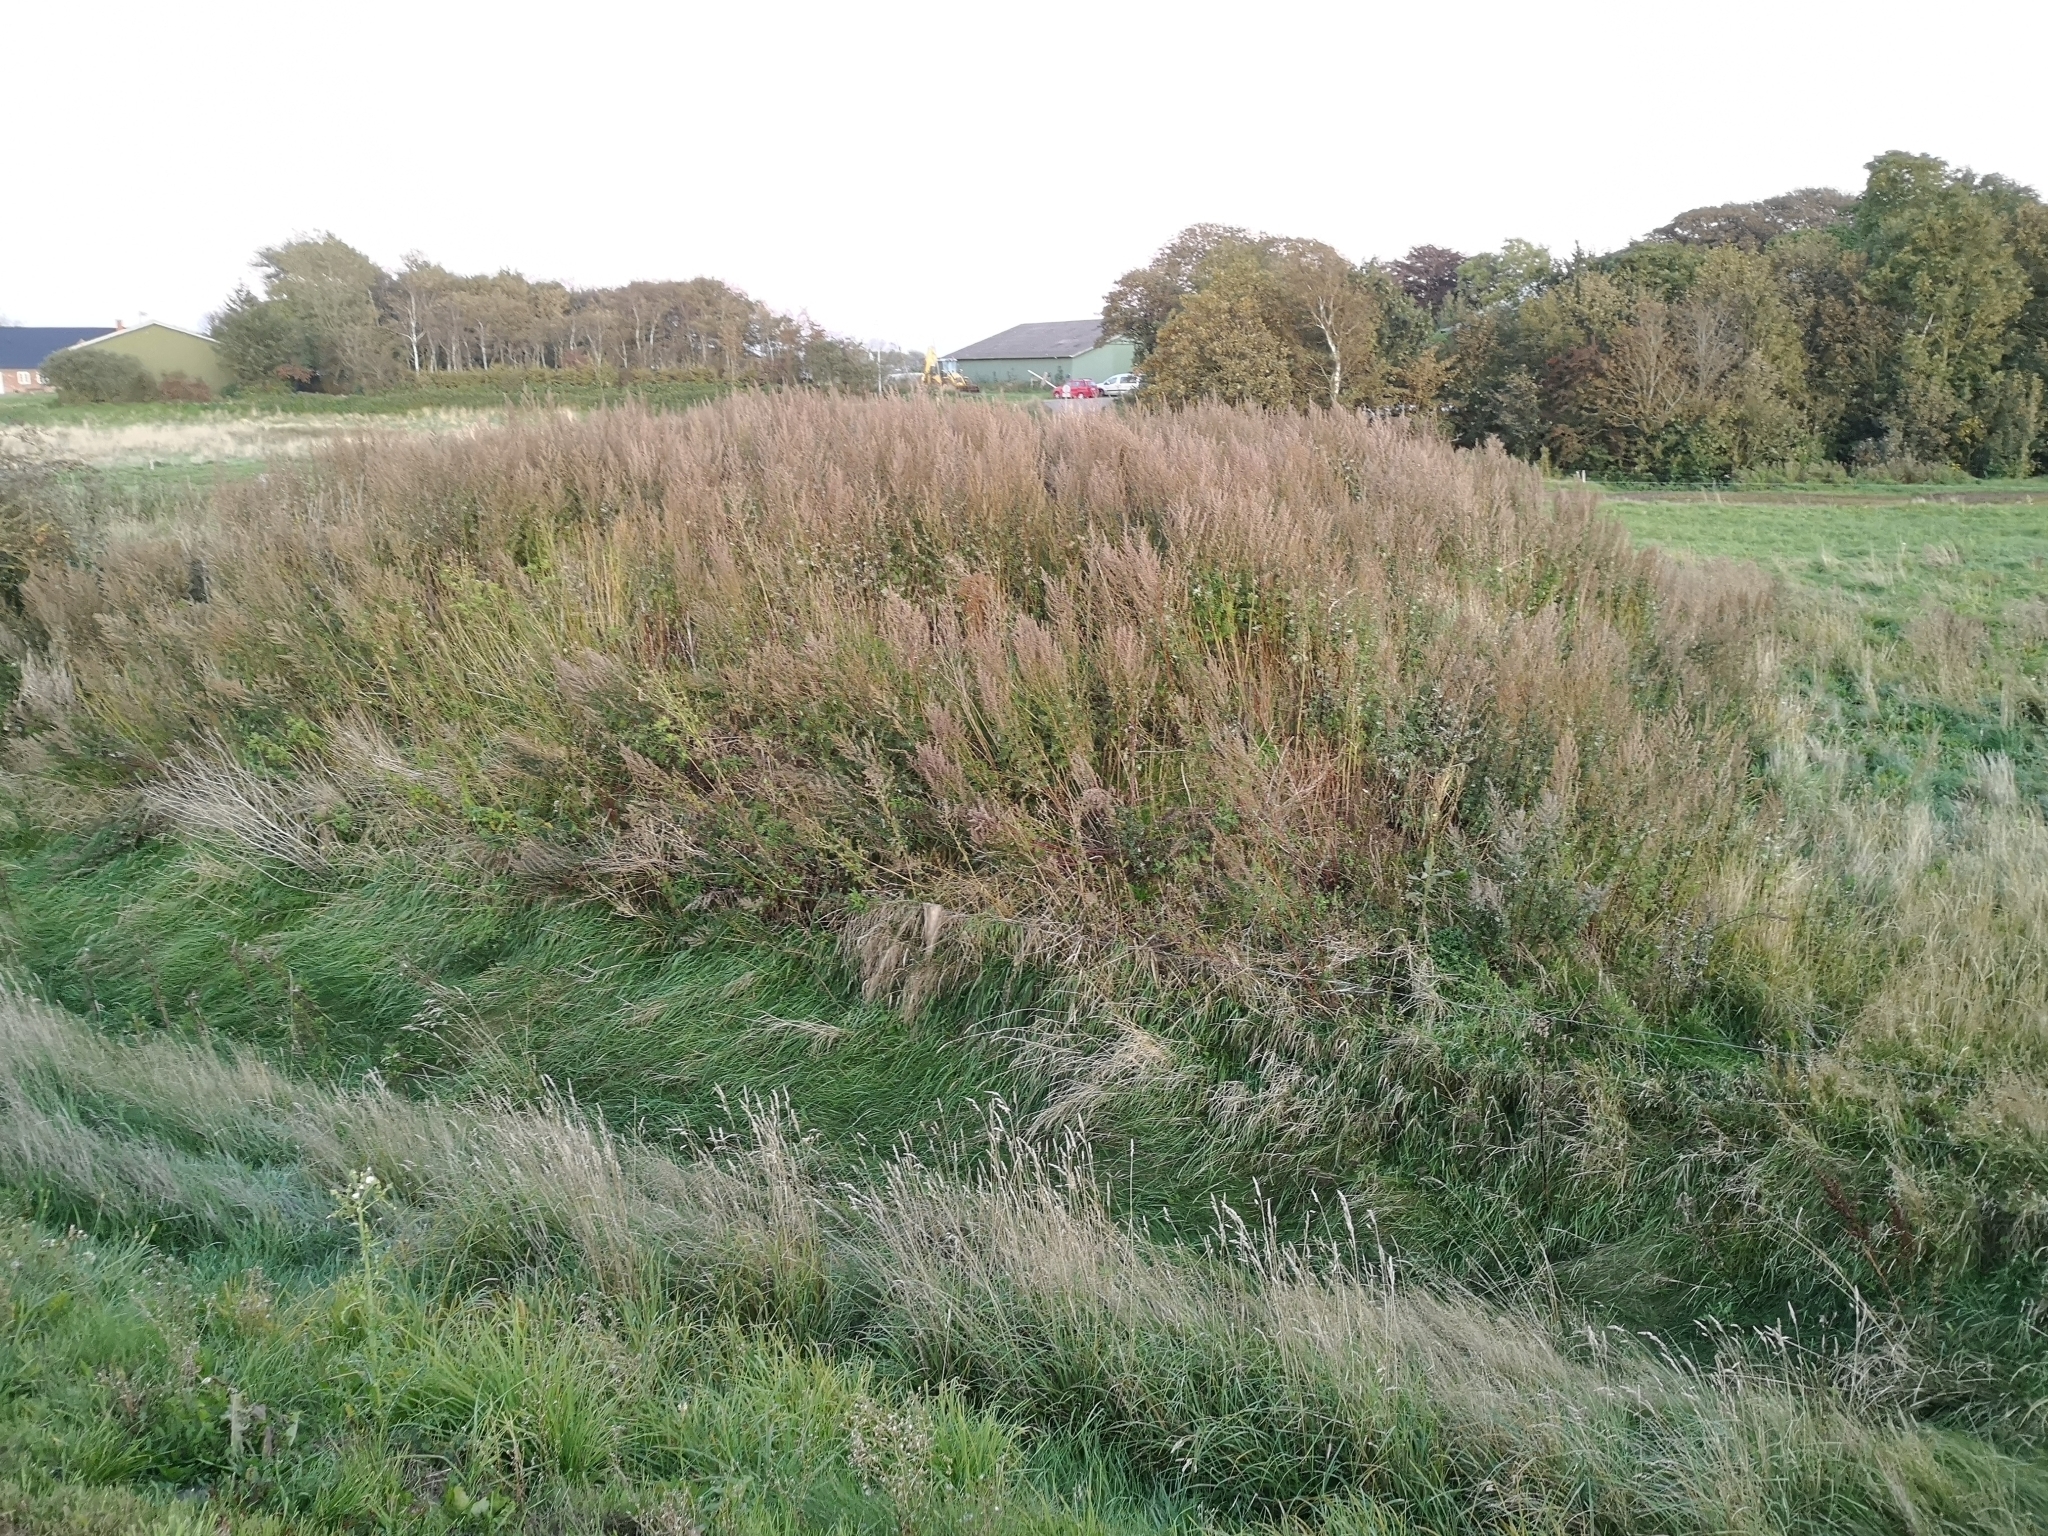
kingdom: Plantae
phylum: Tracheophyta
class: Magnoliopsida
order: Asterales
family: Asteraceae
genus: Artemisia
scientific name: Artemisia vulgaris
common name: Mugwort
